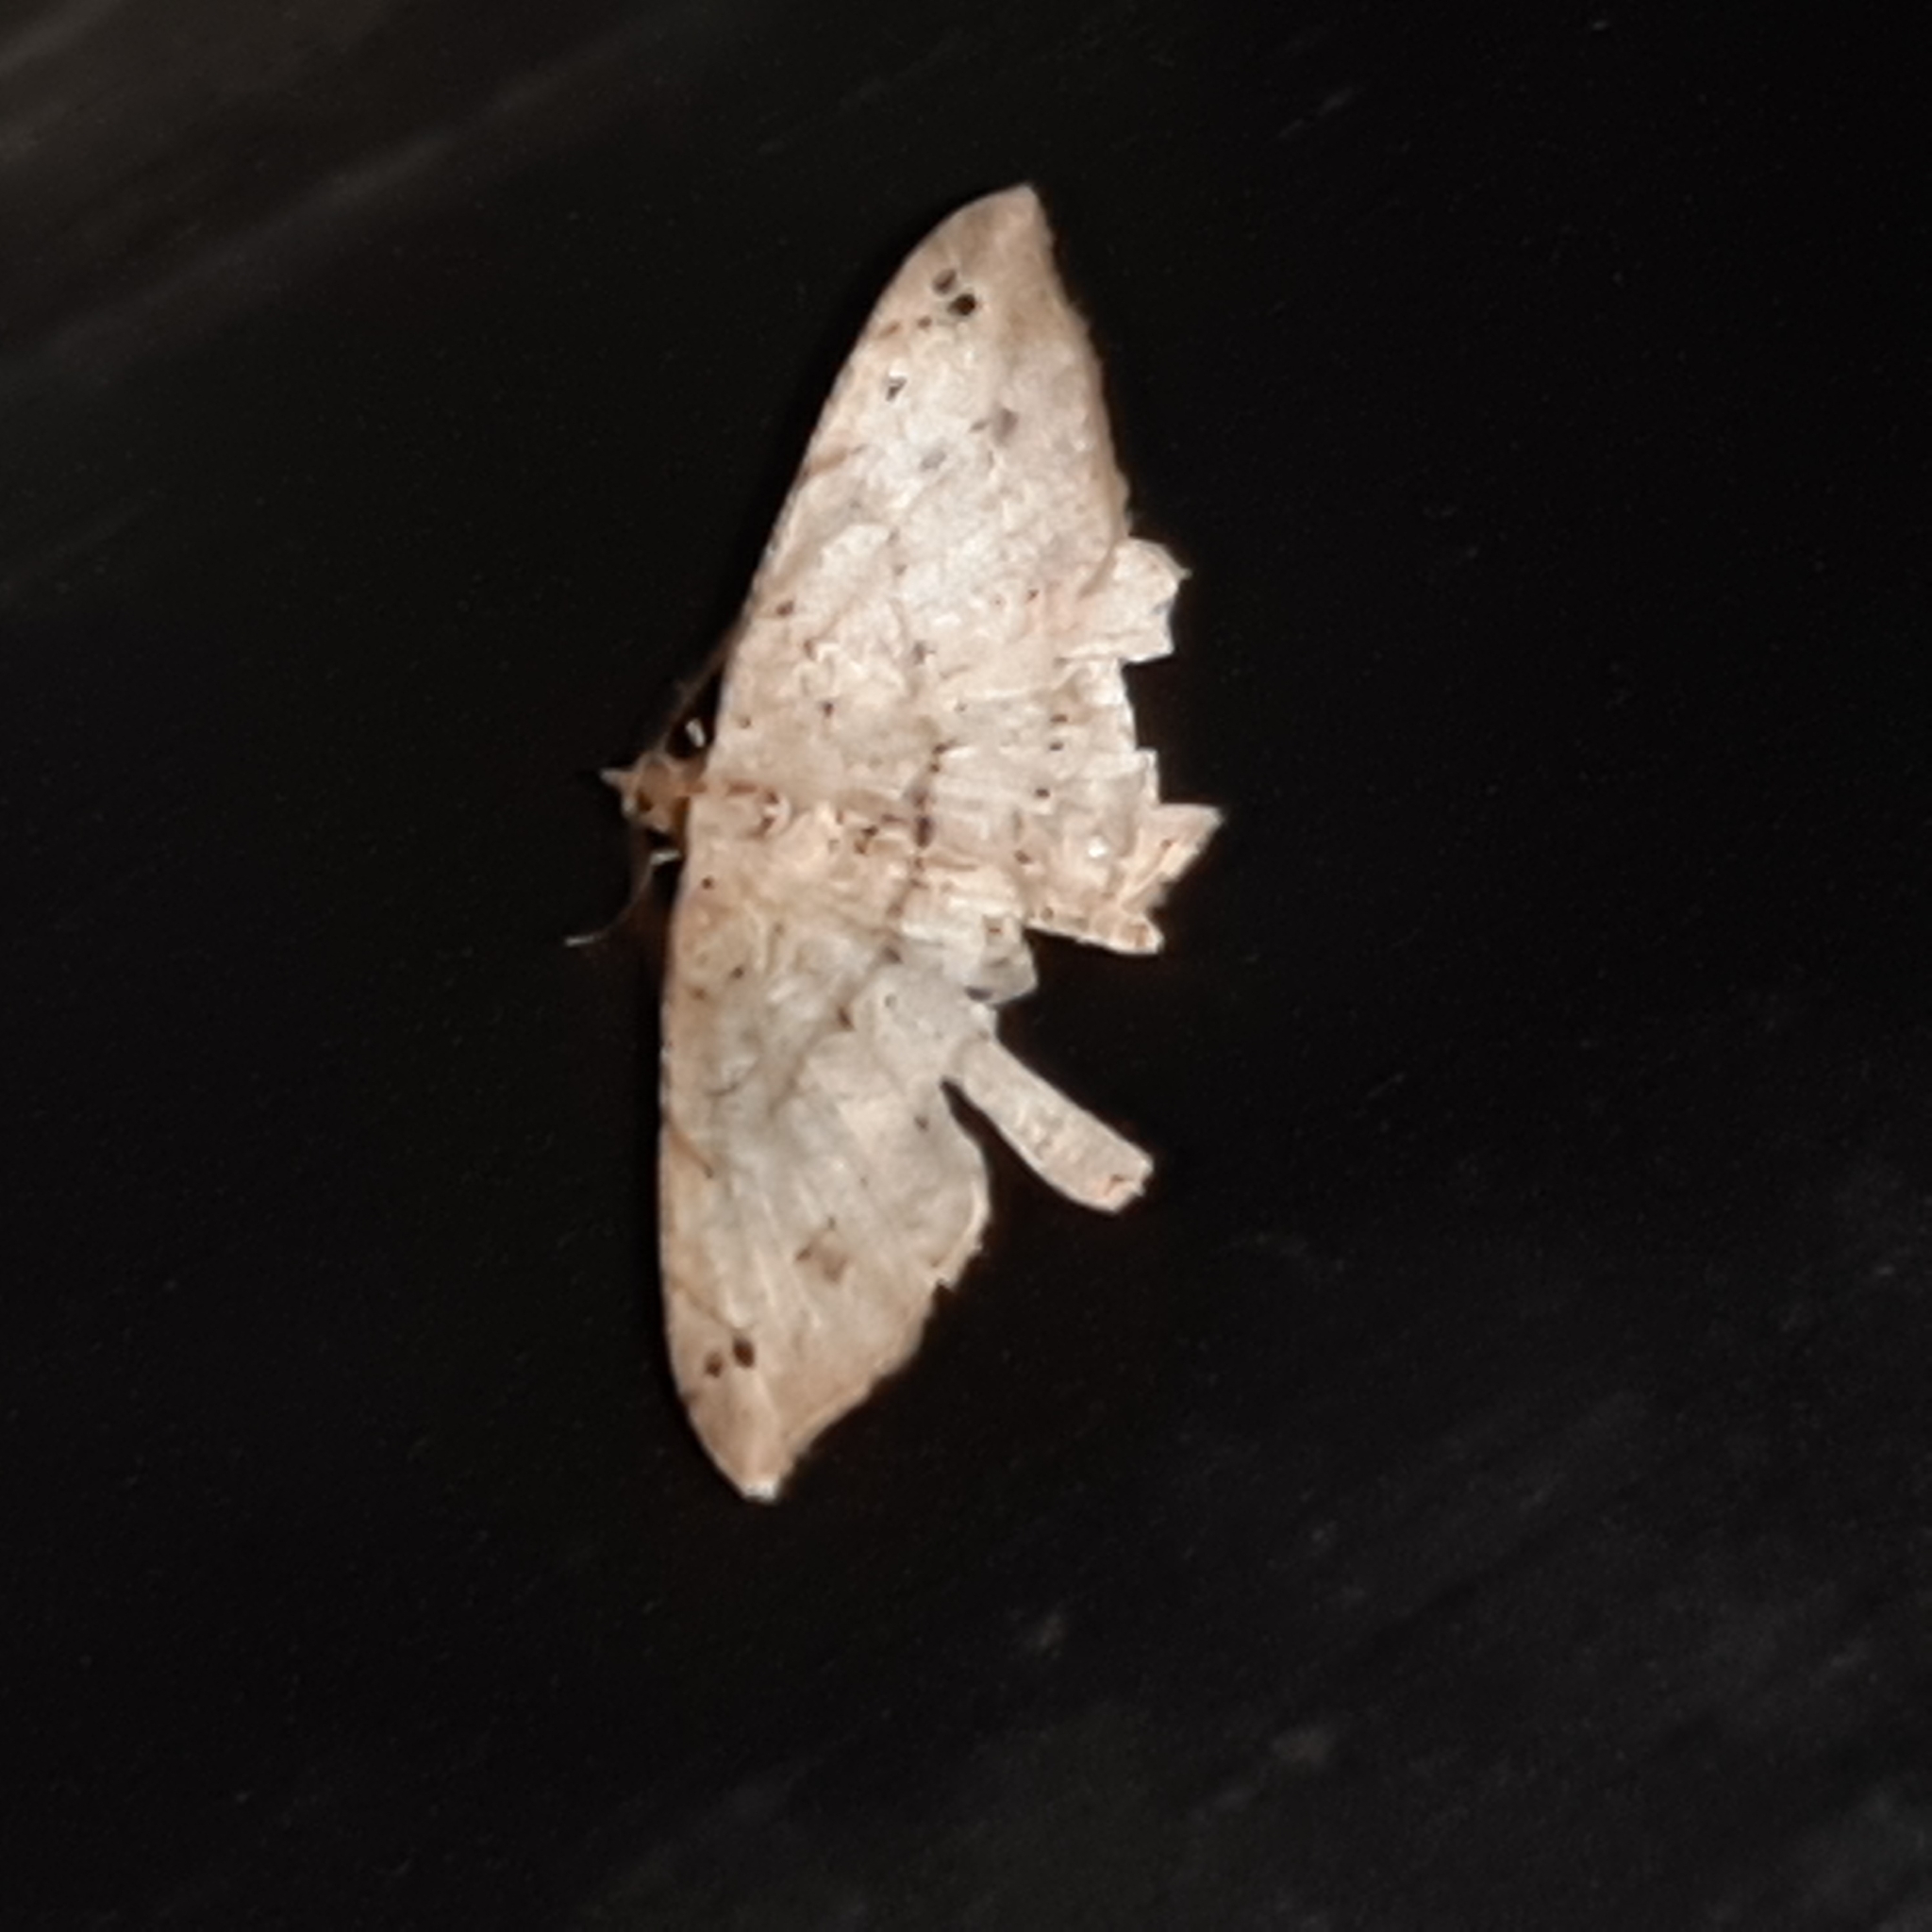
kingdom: Animalia
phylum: Arthropoda
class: Insecta
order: Lepidoptera
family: Geometridae
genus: Macaria
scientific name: Macaria
